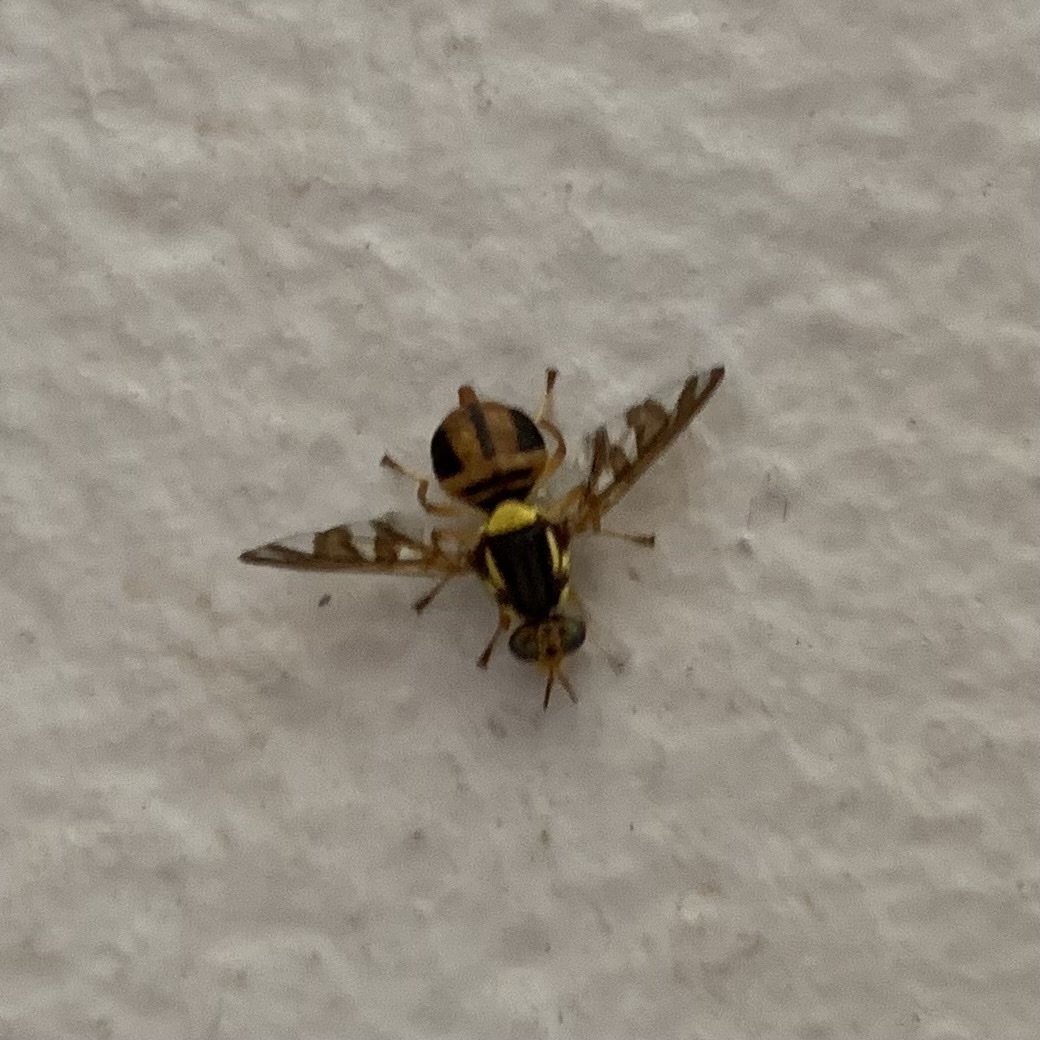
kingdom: Animalia
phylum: Arthropoda
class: Insecta
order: Diptera
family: Tephritidae
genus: Bactrocera
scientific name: Bactrocera umbrosa
